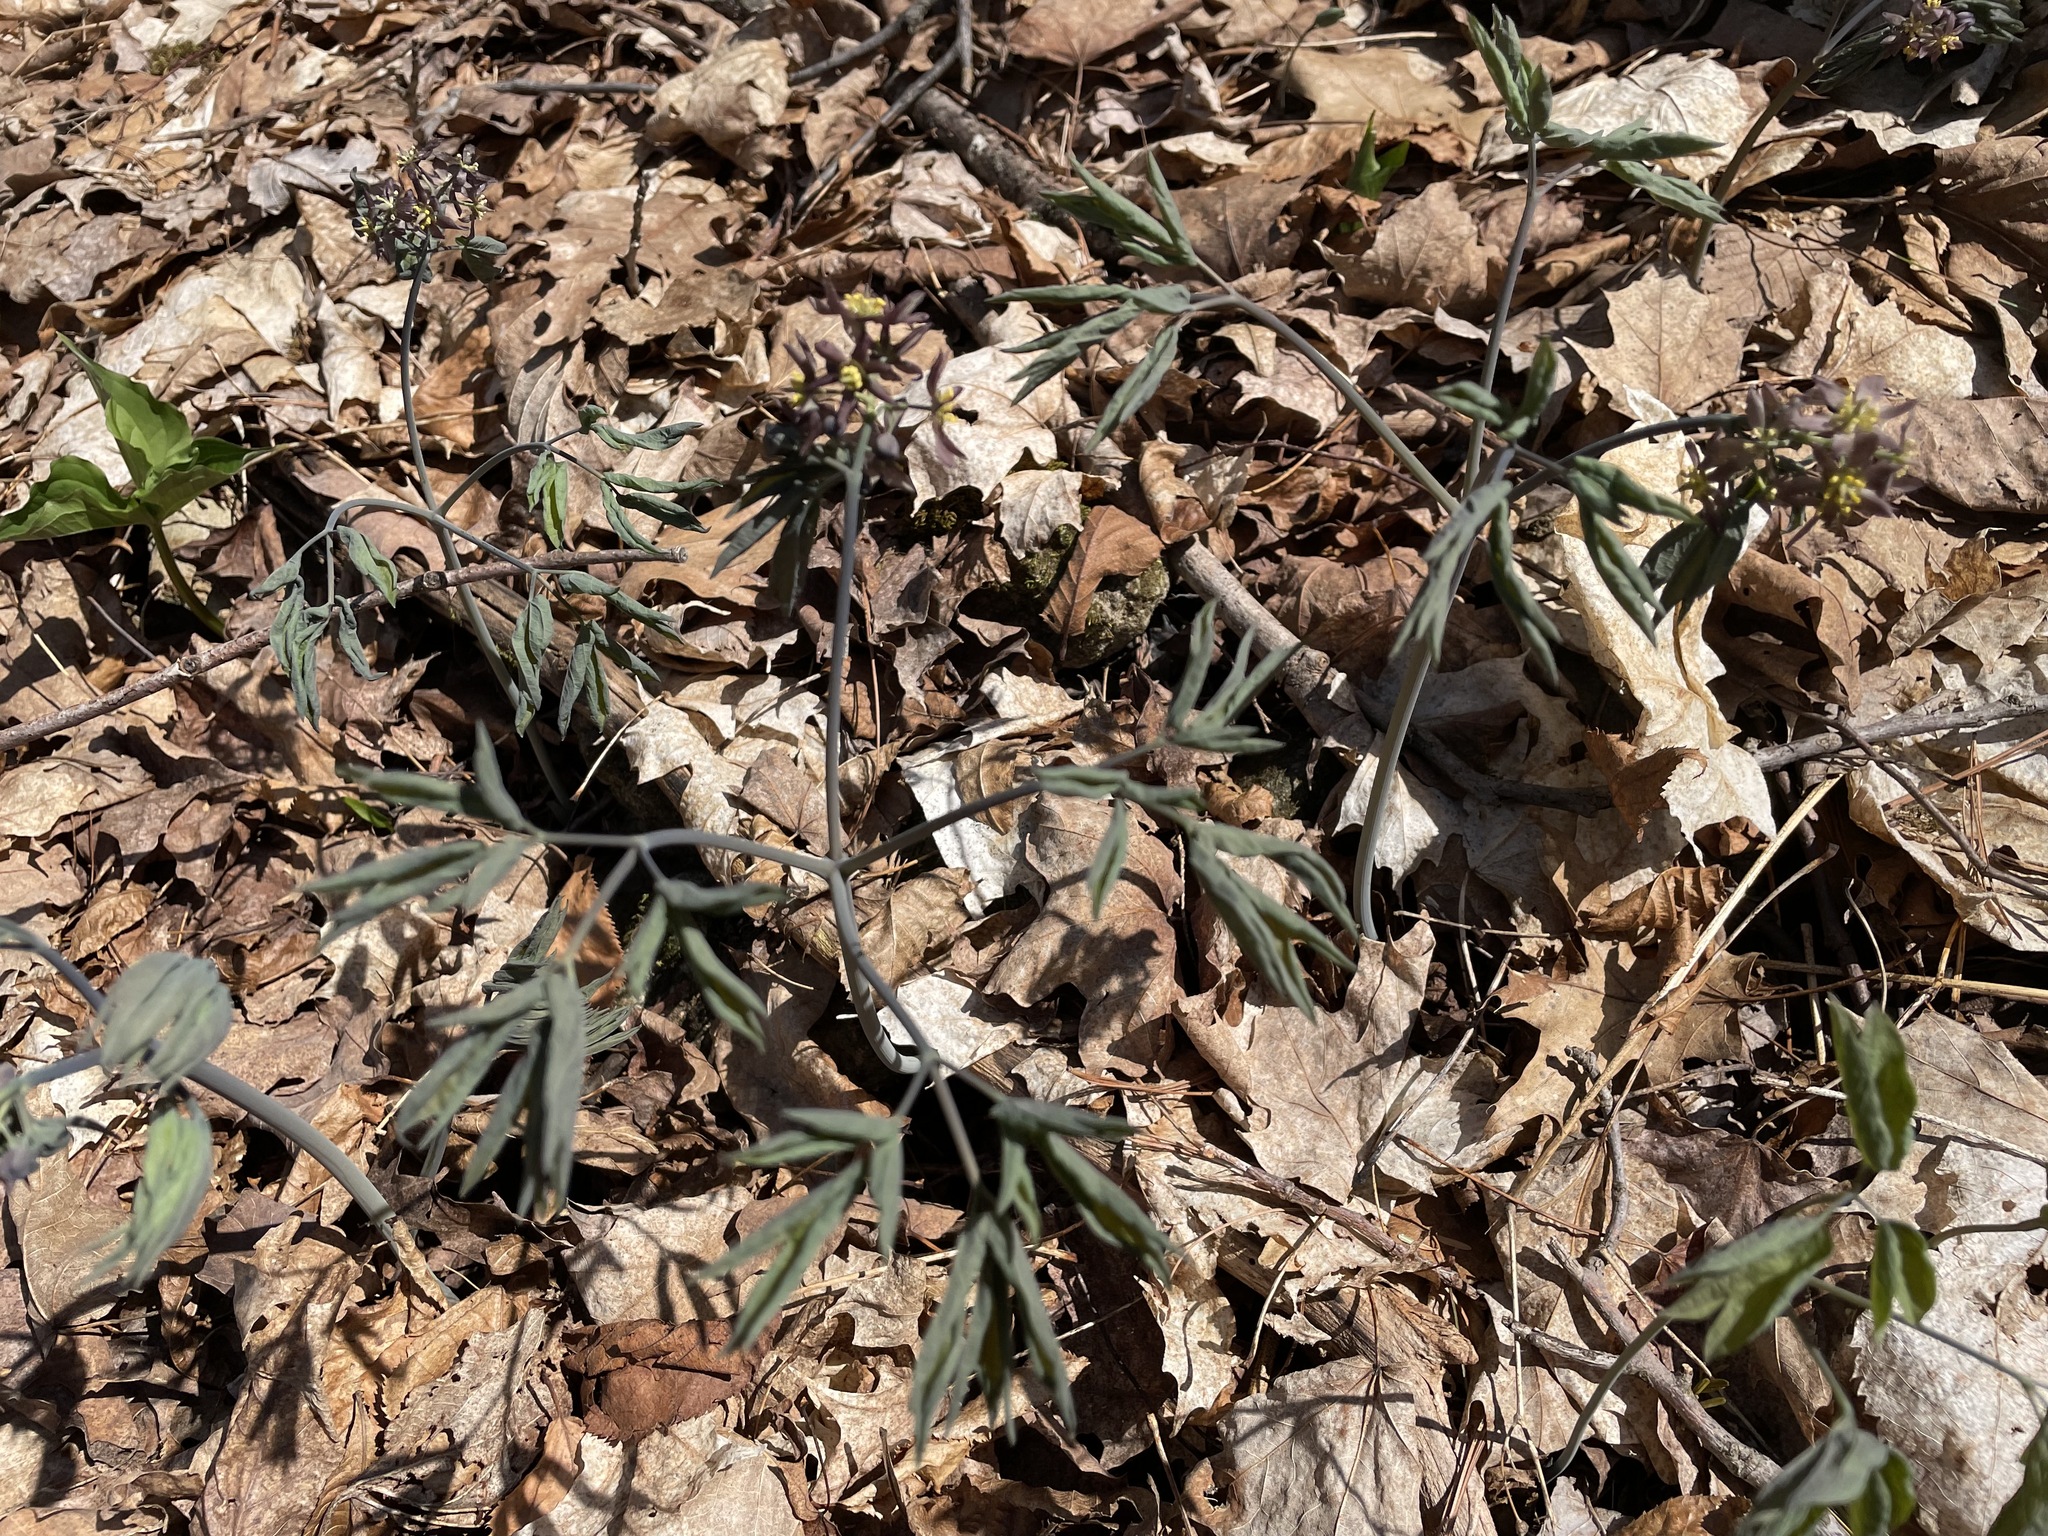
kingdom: Plantae
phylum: Tracheophyta
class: Magnoliopsida
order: Ranunculales
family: Berberidaceae
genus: Caulophyllum
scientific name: Caulophyllum giganteum
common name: Blue cohosh
